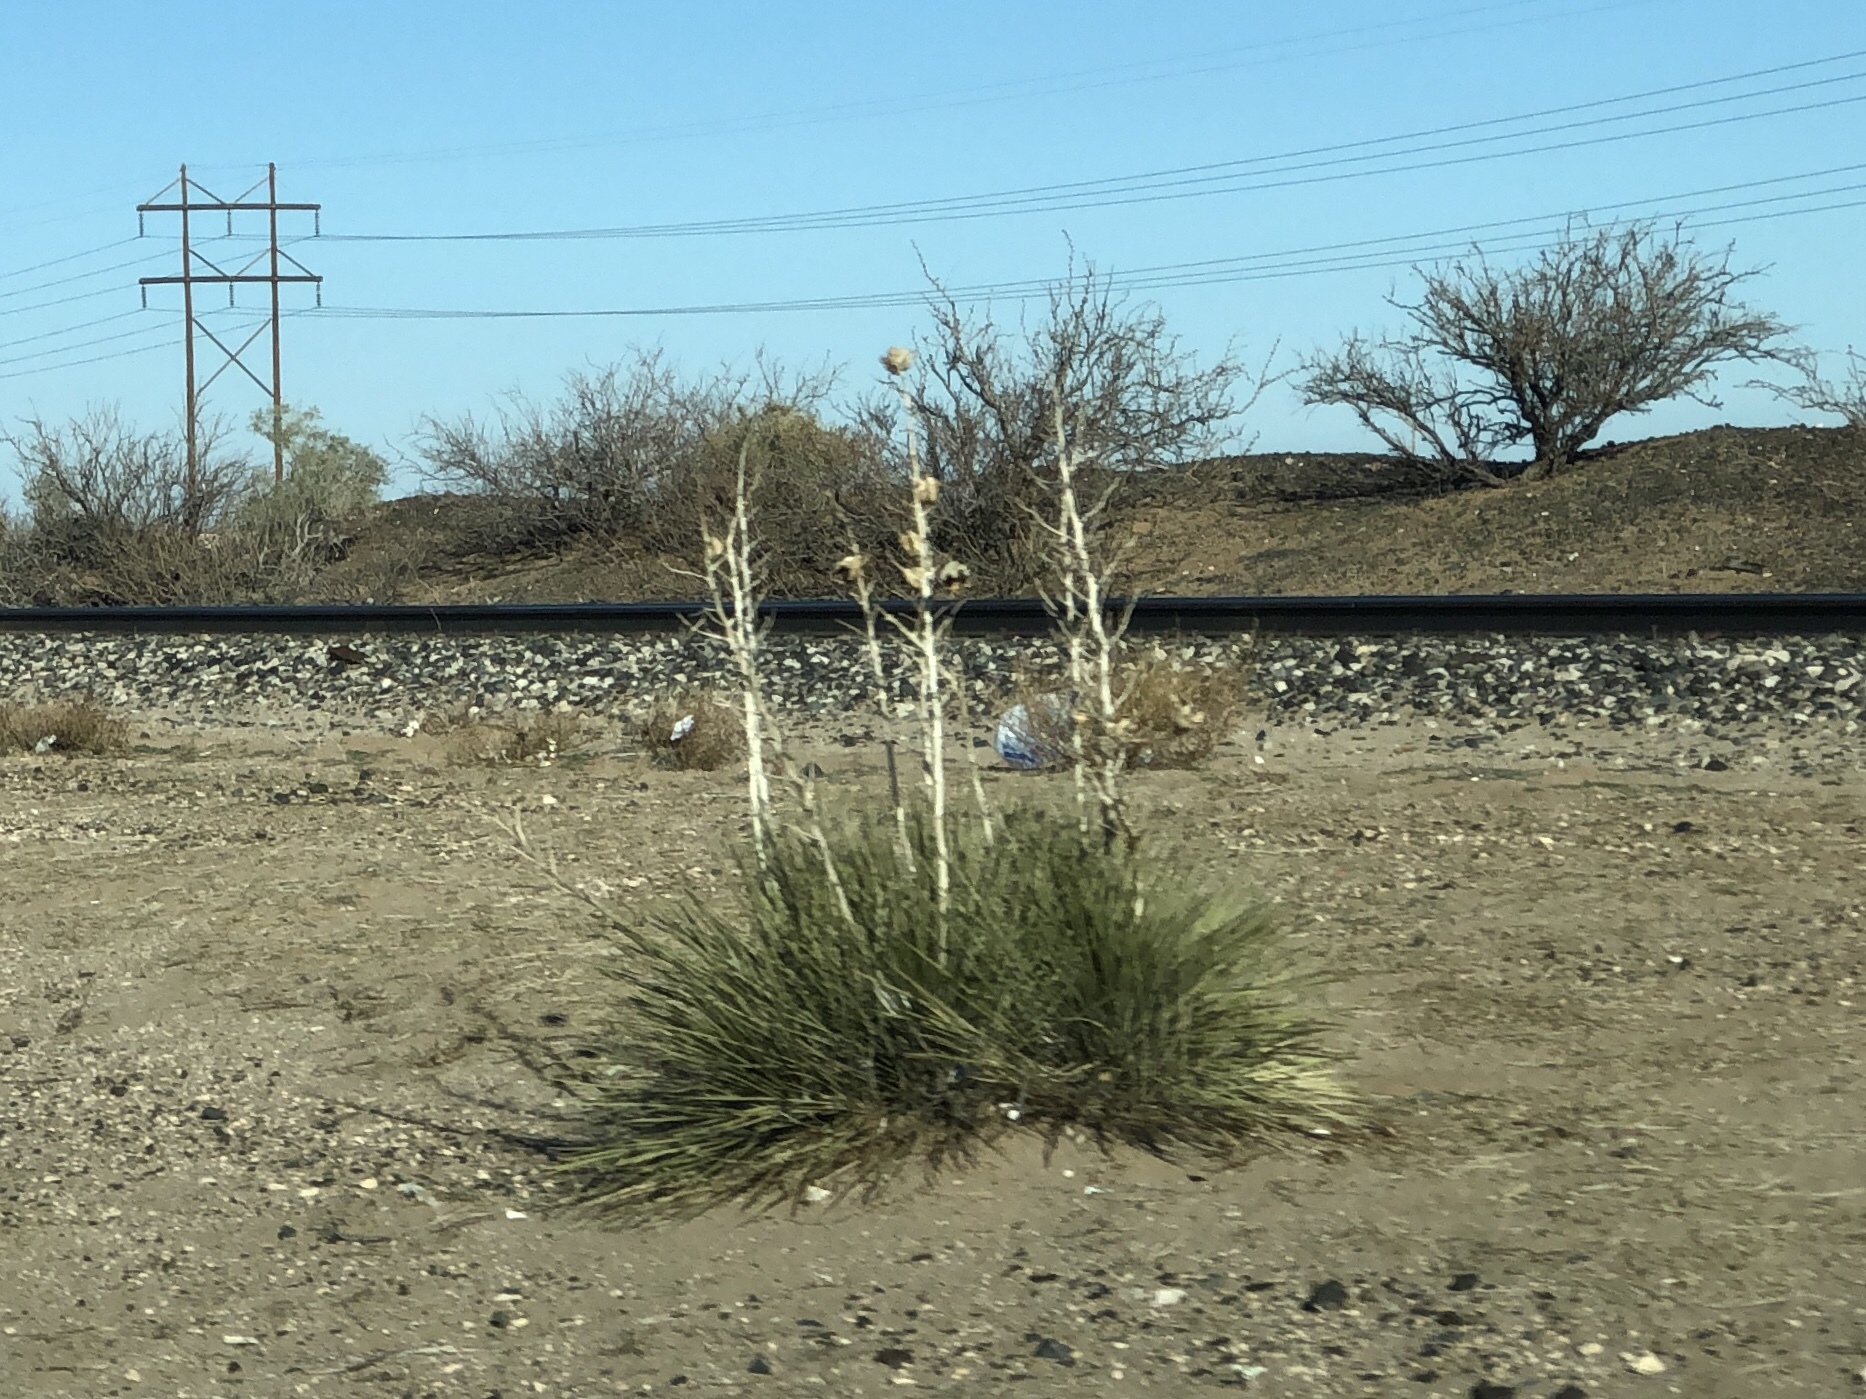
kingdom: Plantae
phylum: Tracheophyta
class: Liliopsida
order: Asparagales
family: Asparagaceae
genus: Yucca
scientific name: Yucca elata
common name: Palmella
